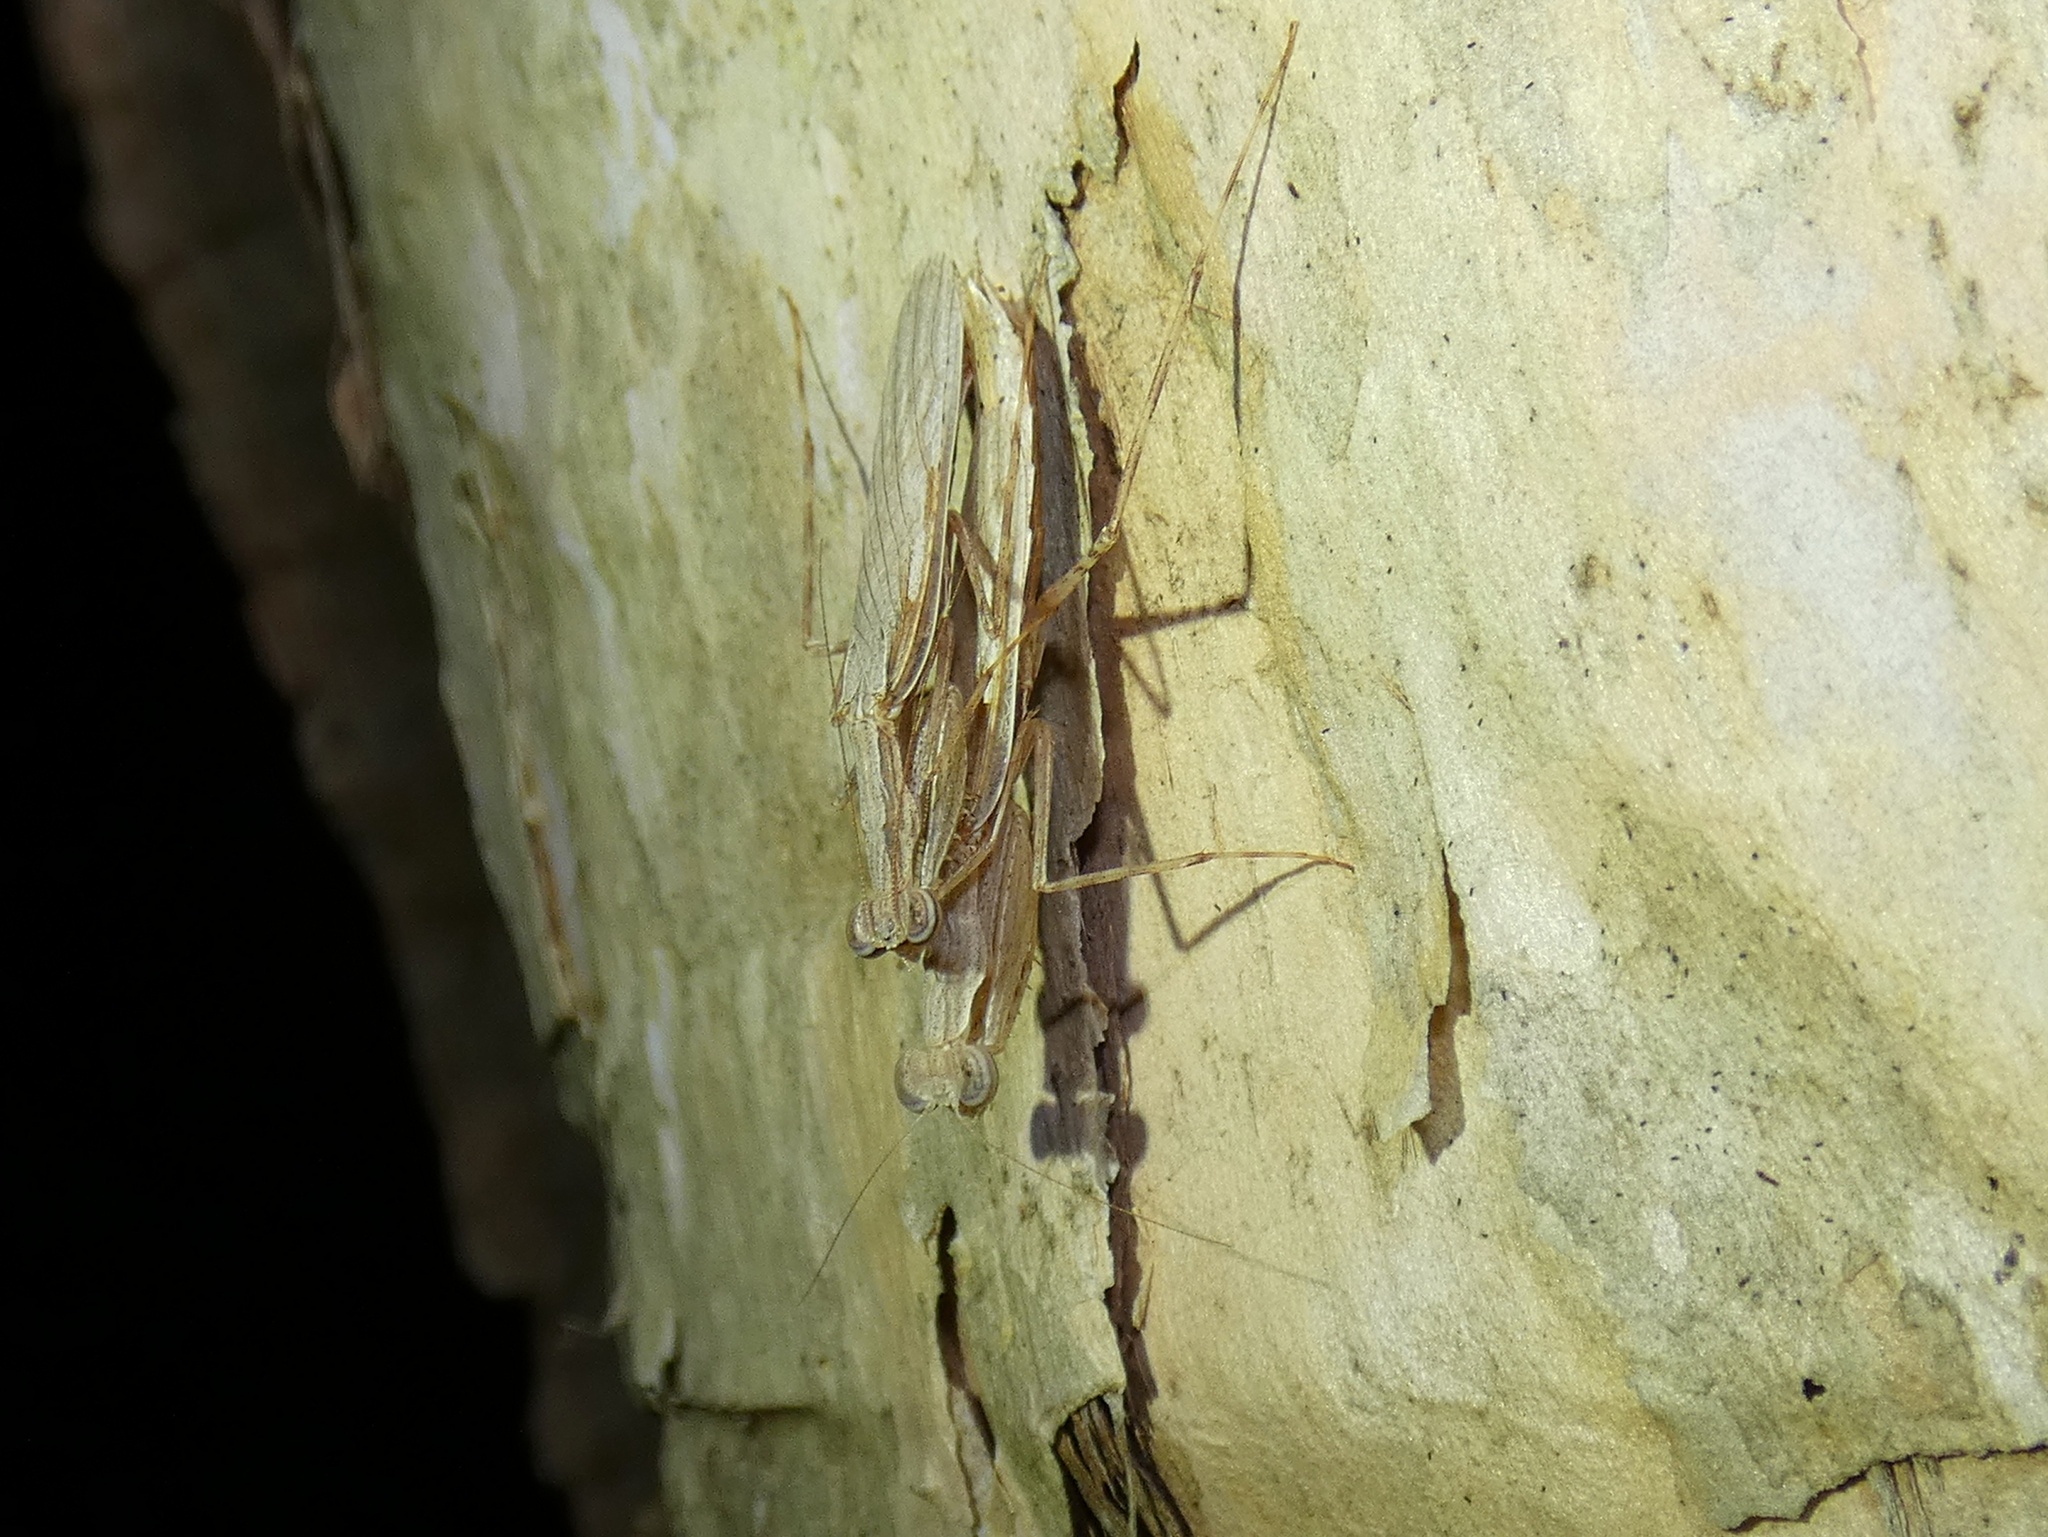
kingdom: Animalia
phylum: Arthropoda
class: Insecta
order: Mantodea
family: Nanomantidae
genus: Ima
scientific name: Ima fusca
